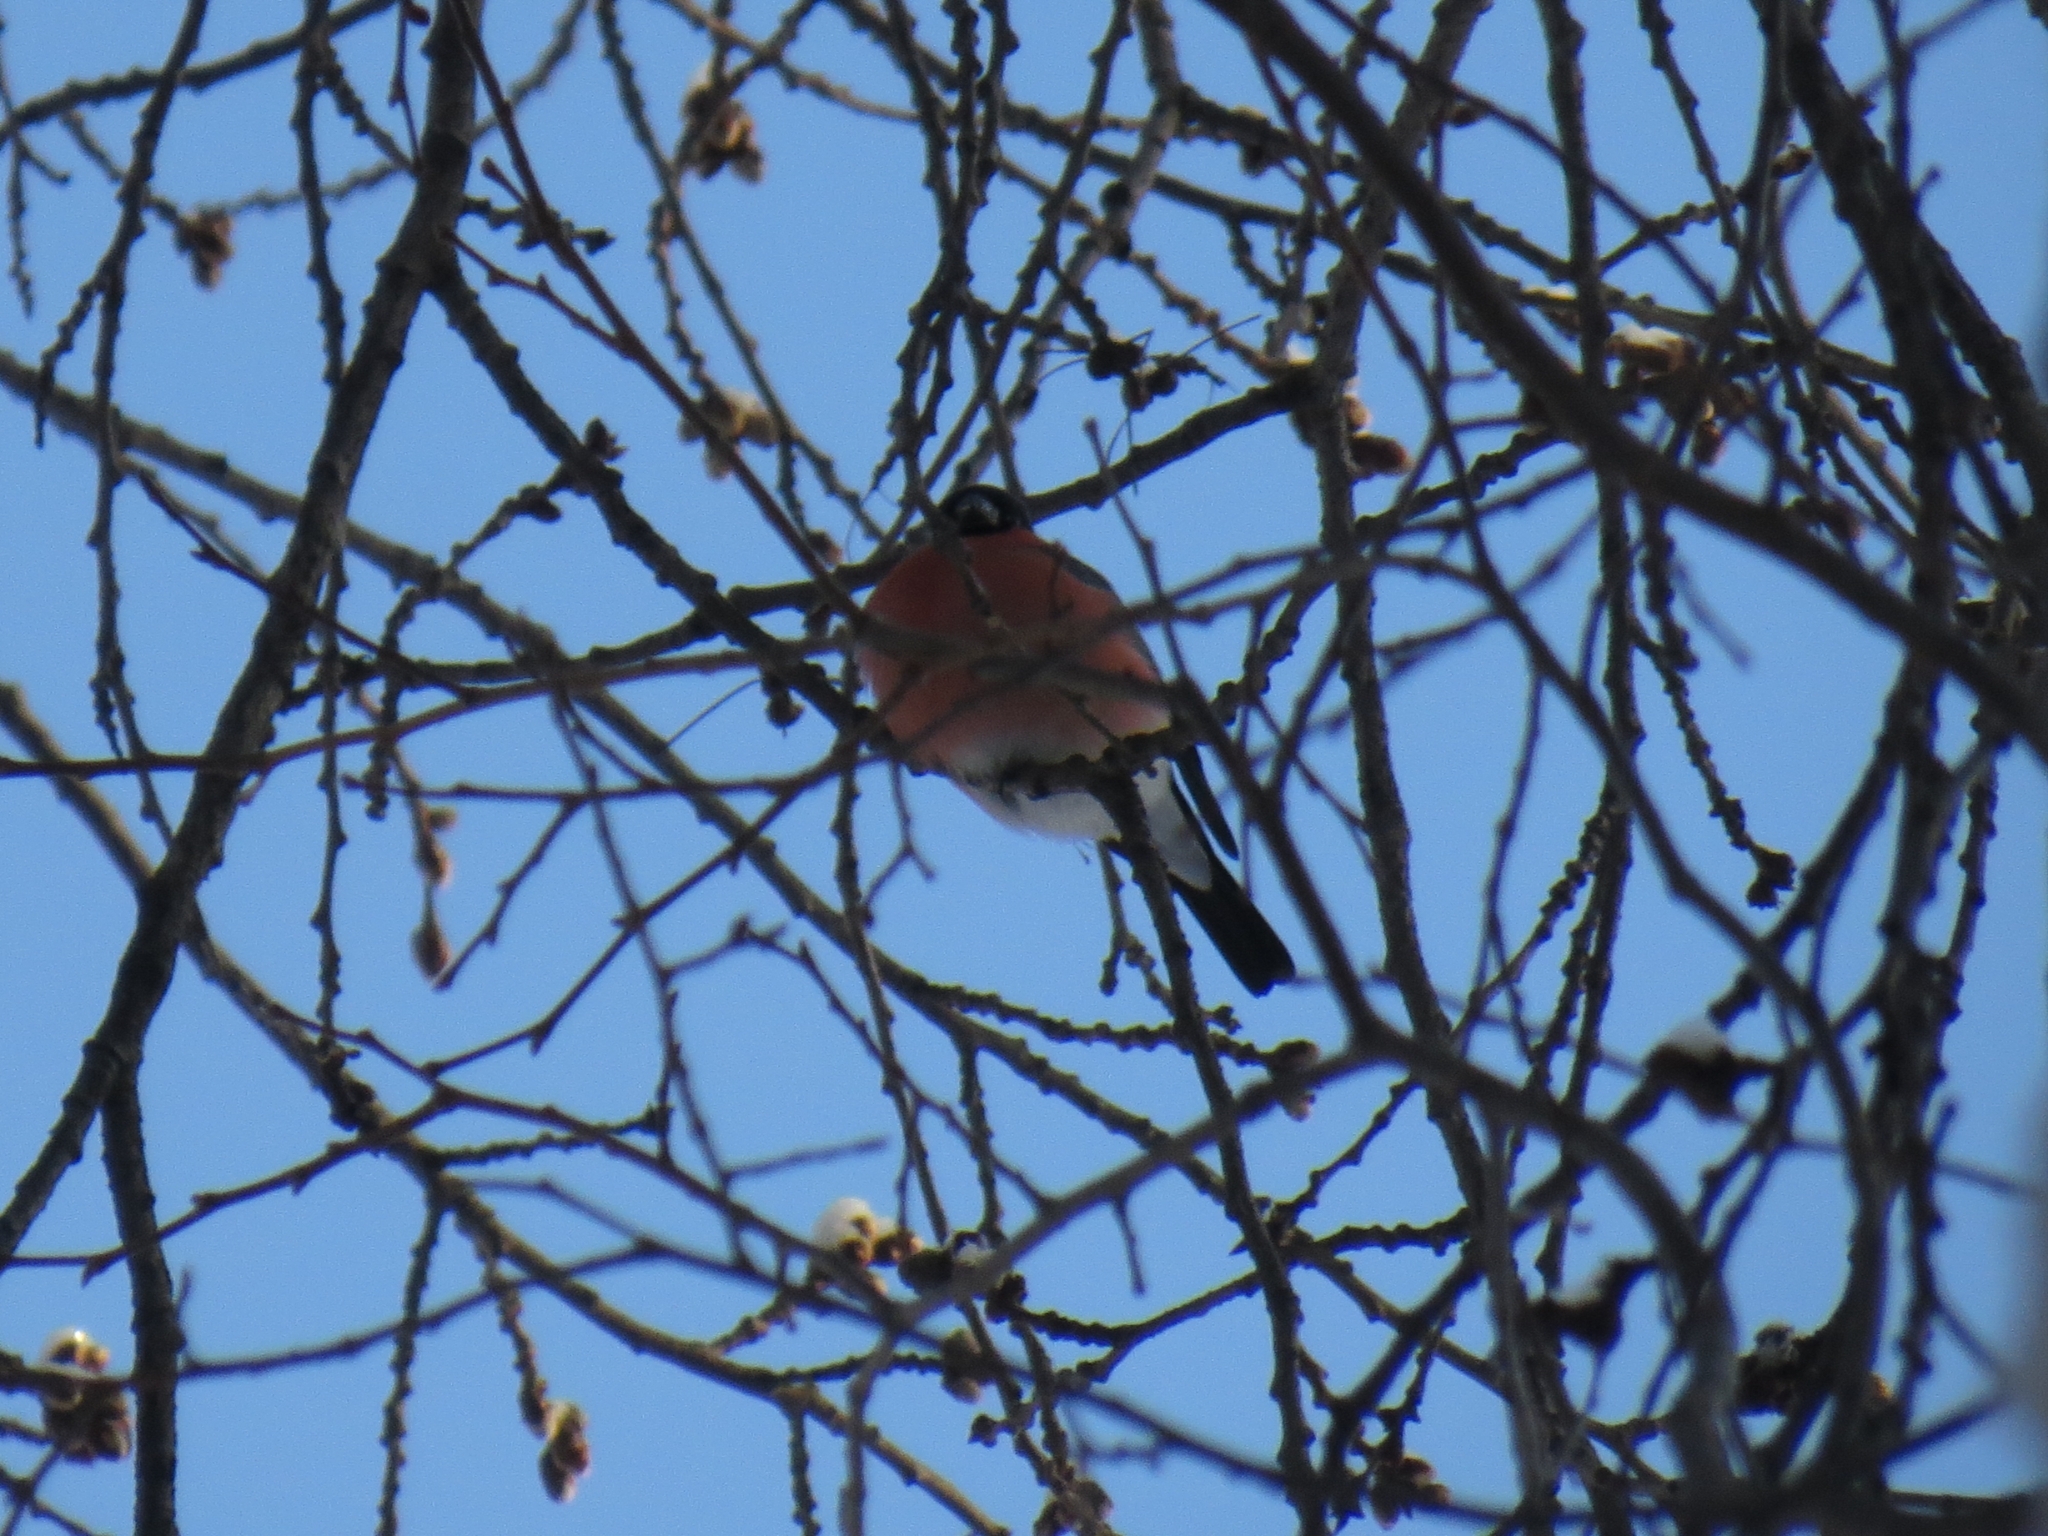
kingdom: Animalia
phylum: Chordata
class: Aves
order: Passeriformes
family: Fringillidae
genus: Pyrrhula
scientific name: Pyrrhula pyrrhula
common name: Eurasian bullfinch
